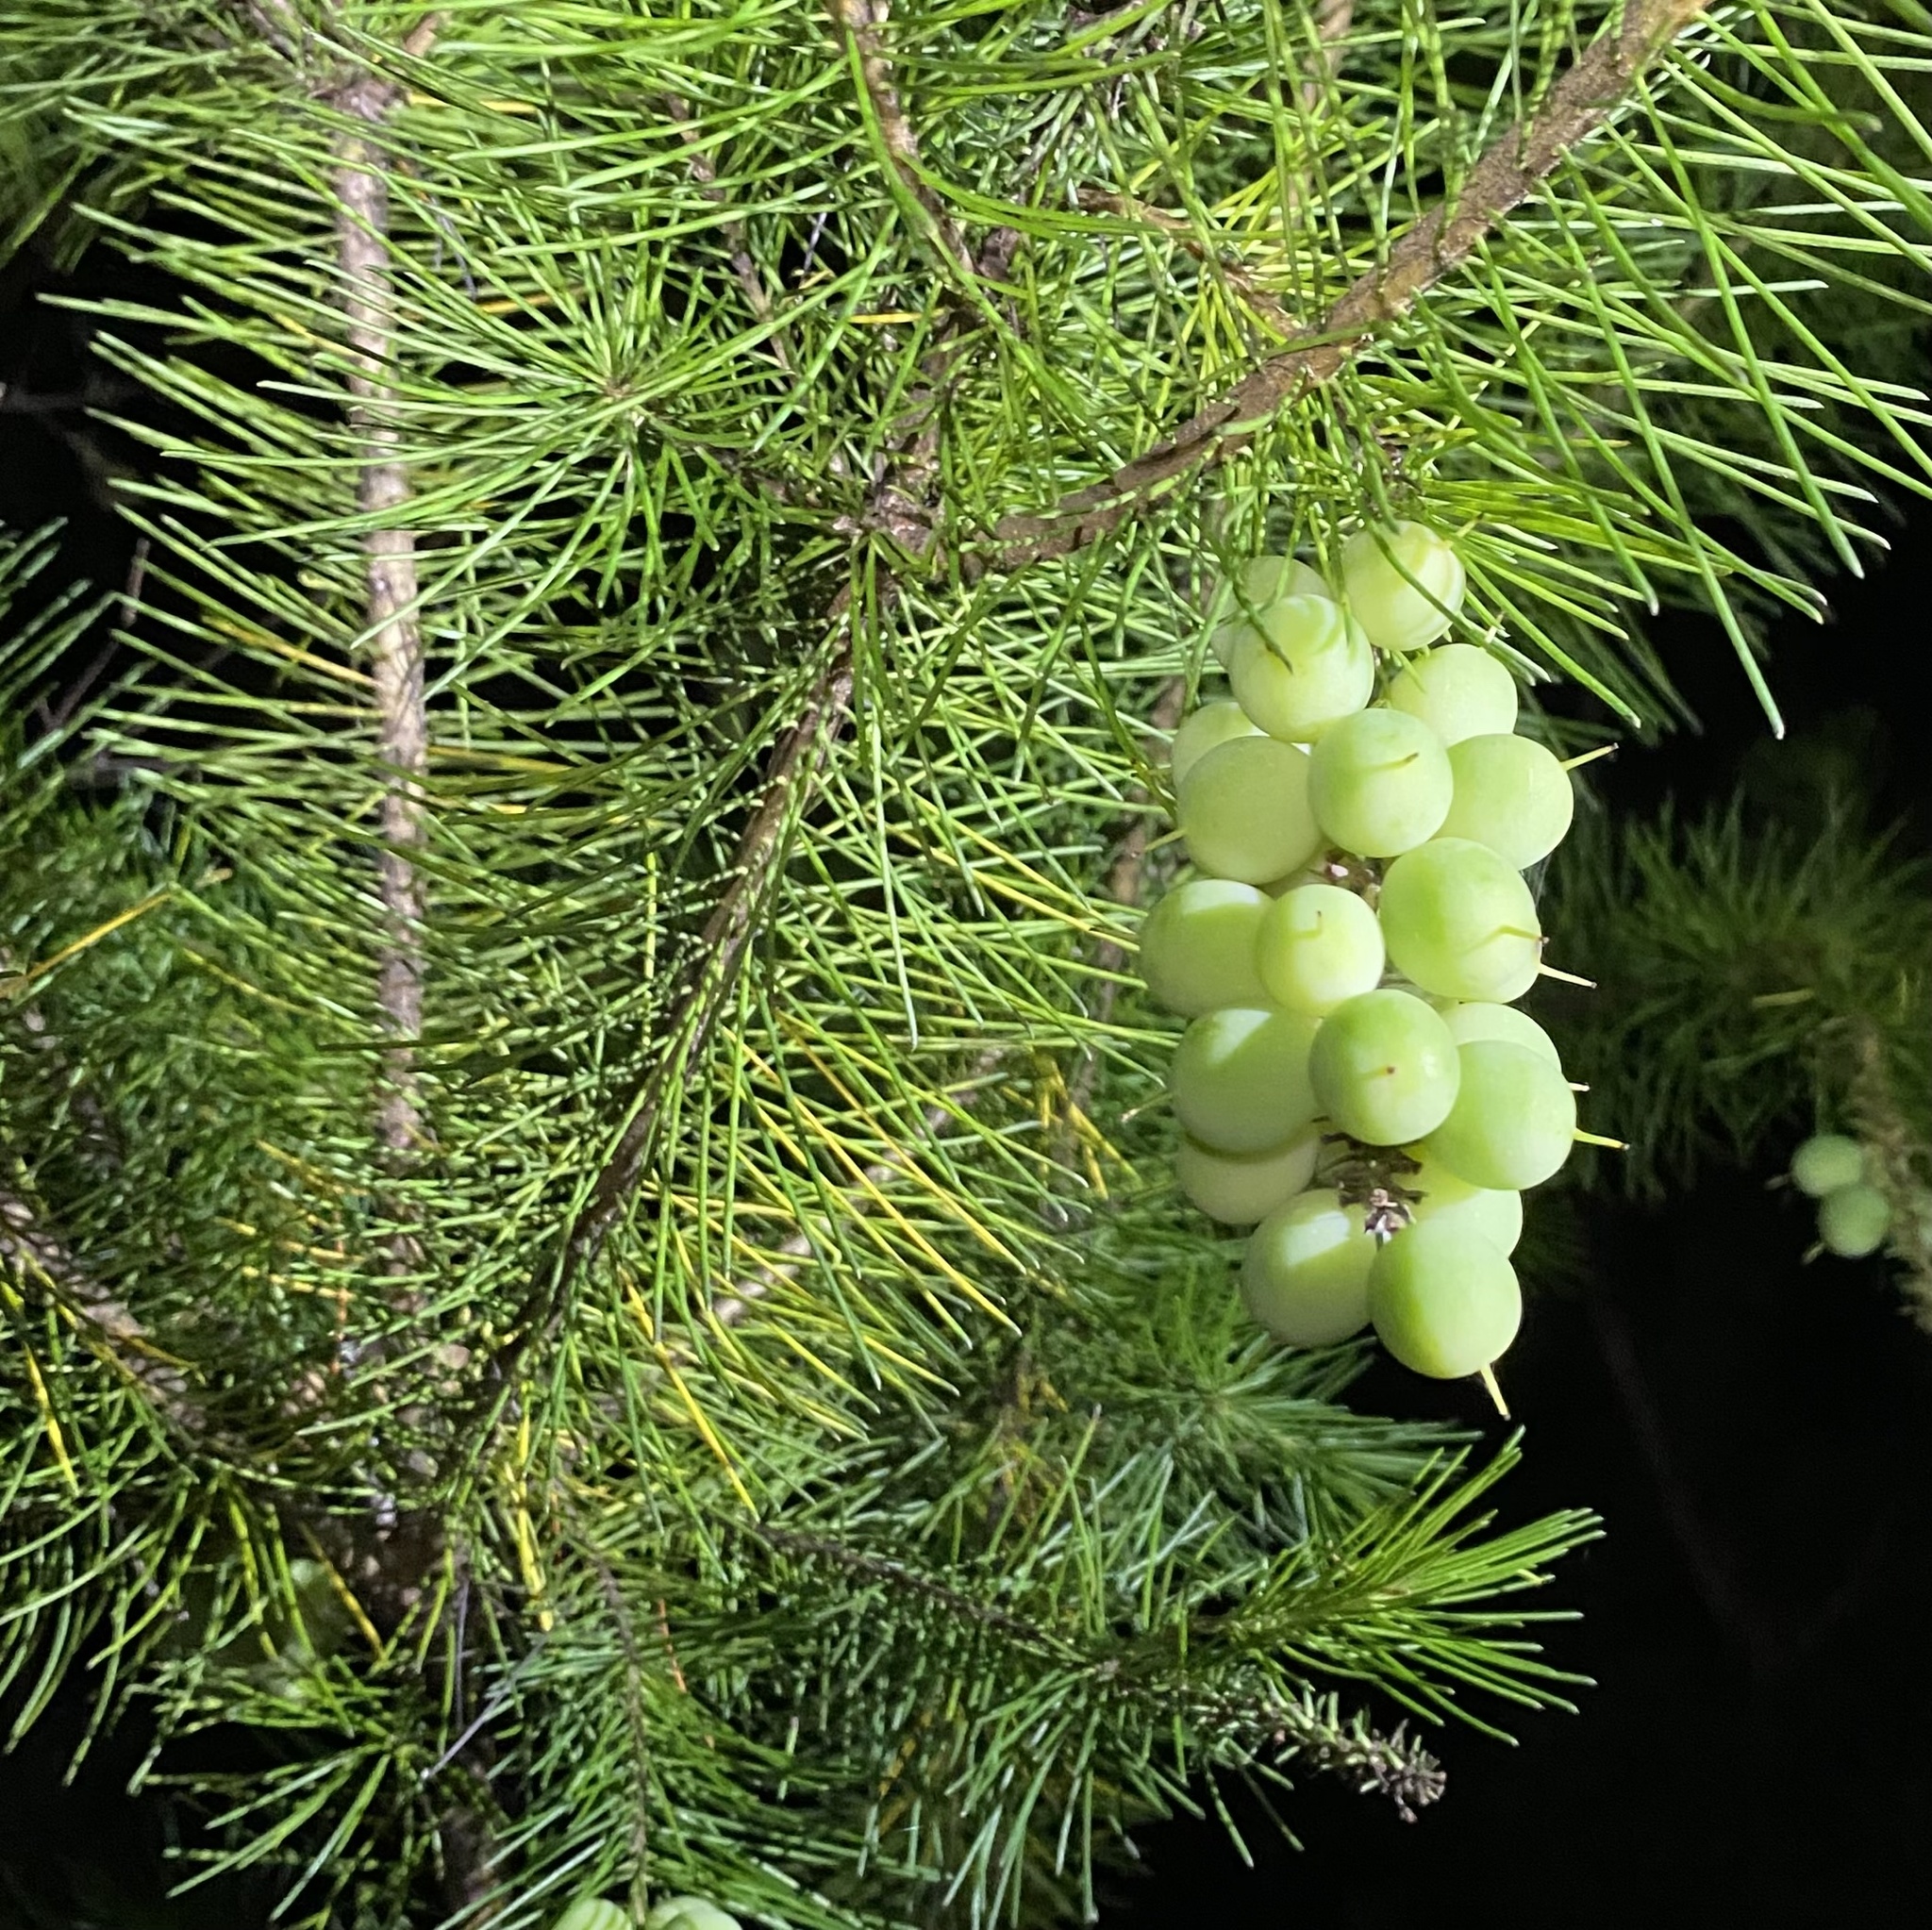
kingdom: Plantae
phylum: Tracheophyta
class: Magnoliopsida
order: Proteales
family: Proteaceae
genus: Persoonia
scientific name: Persoonia pinifolia
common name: Pine-leaf geebung
